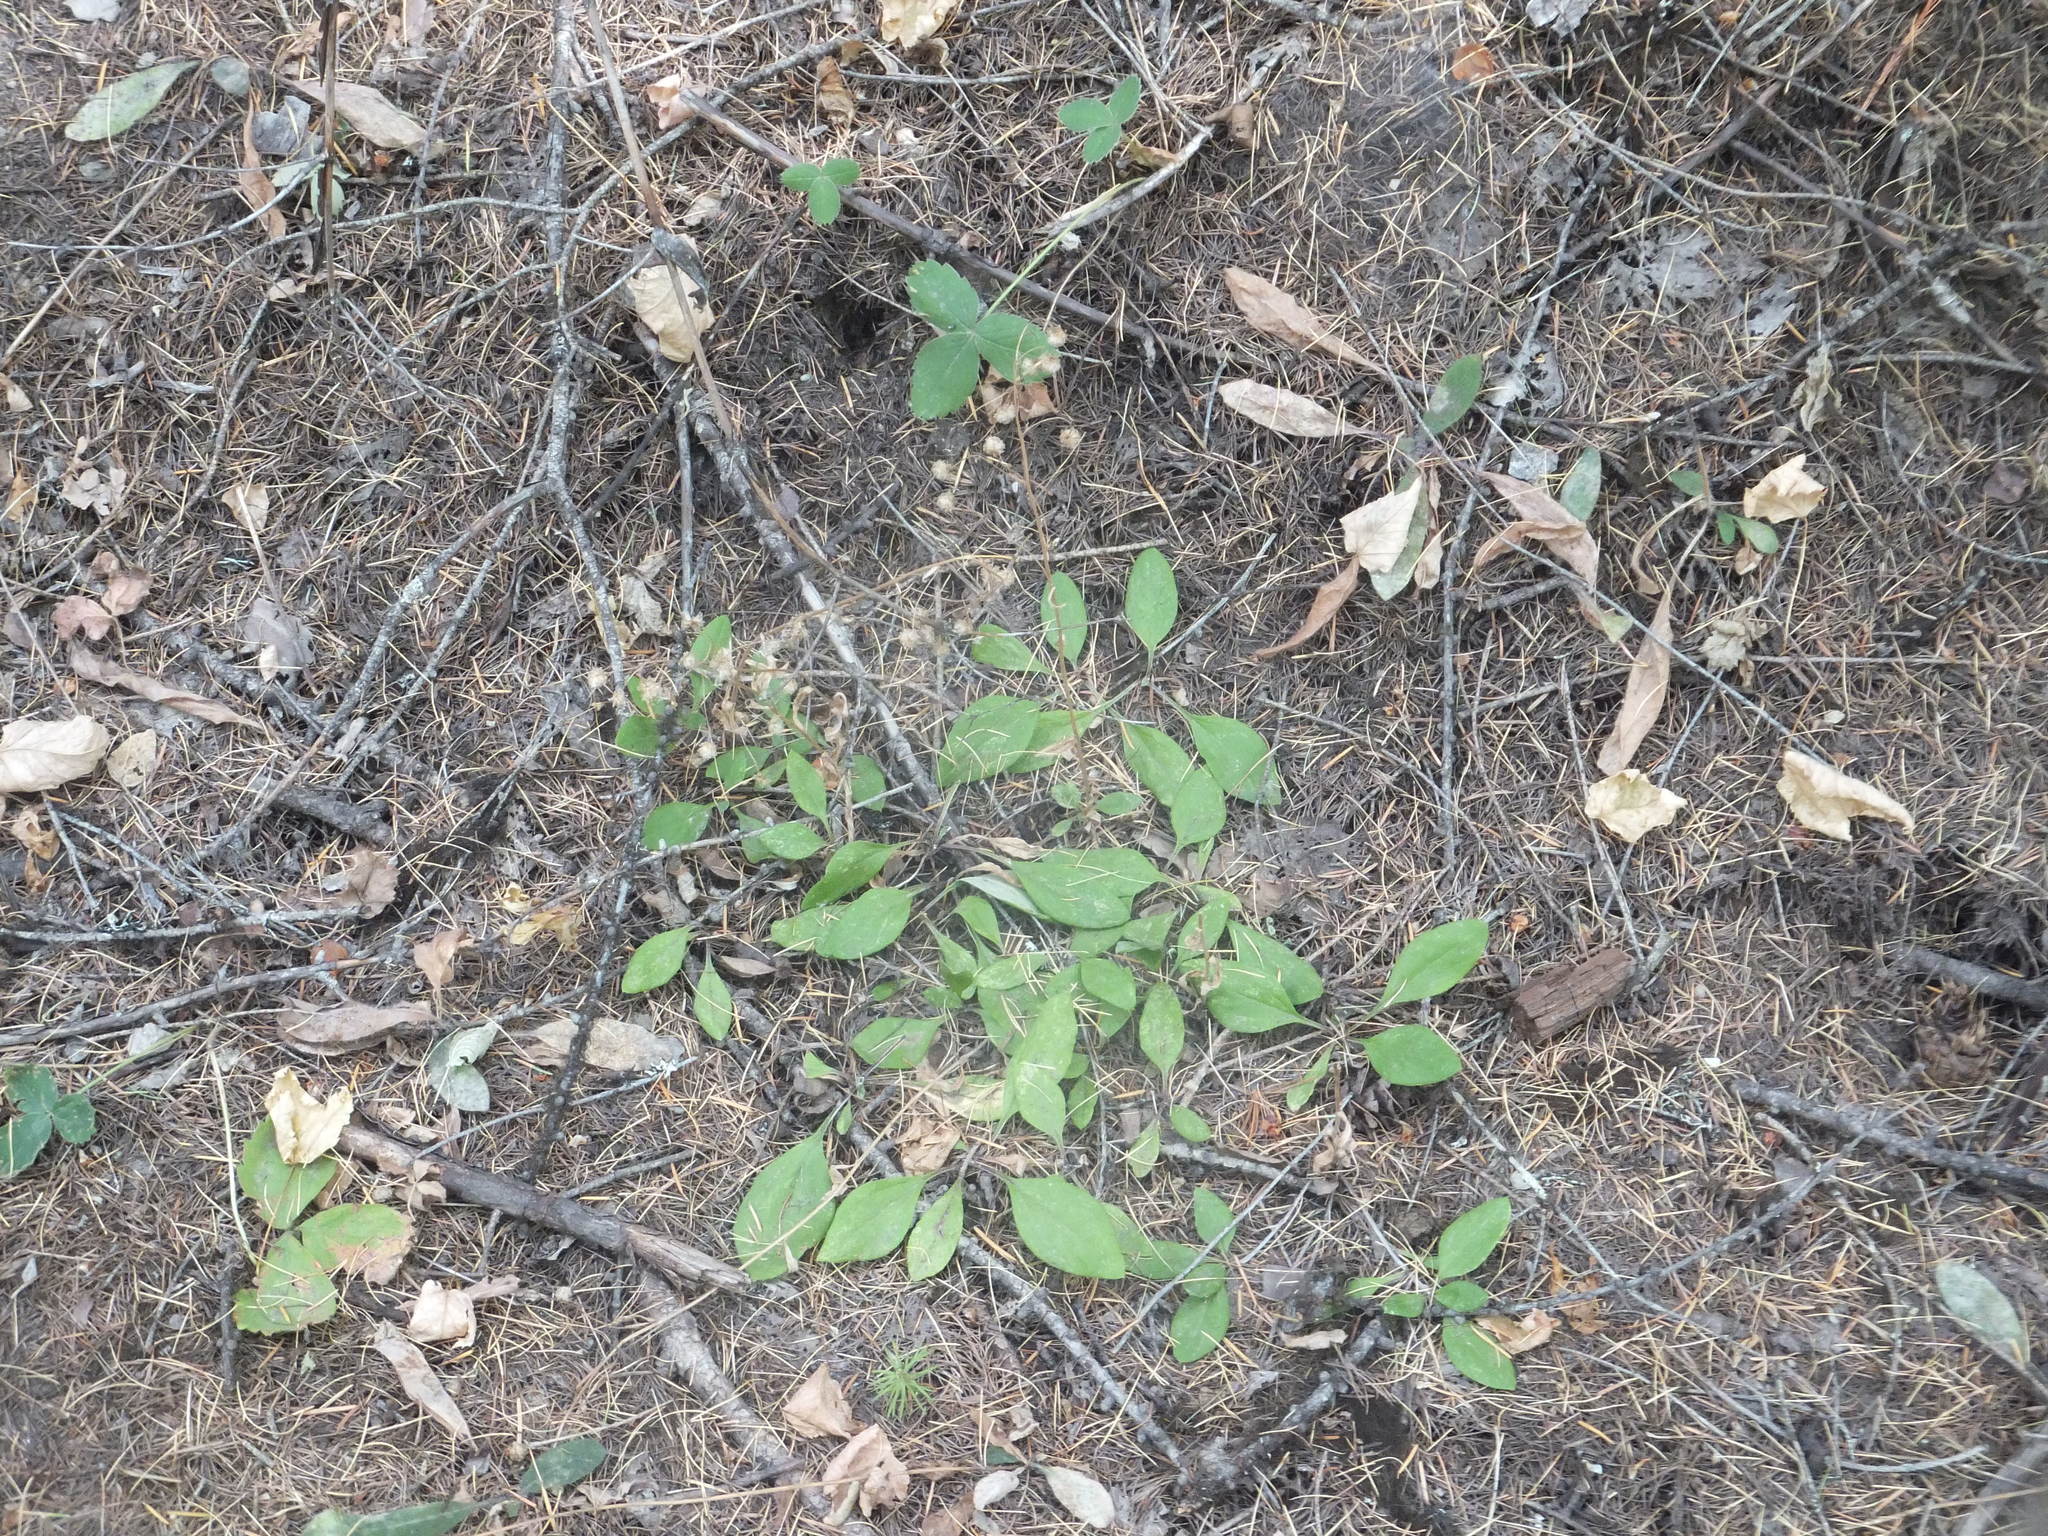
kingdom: Plantae
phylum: Tracheophyta
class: Magnoliopsida
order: Asterales
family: Asteraceae
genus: Antennaria
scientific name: Antennaria racemosa
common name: Racemose pussytoes
